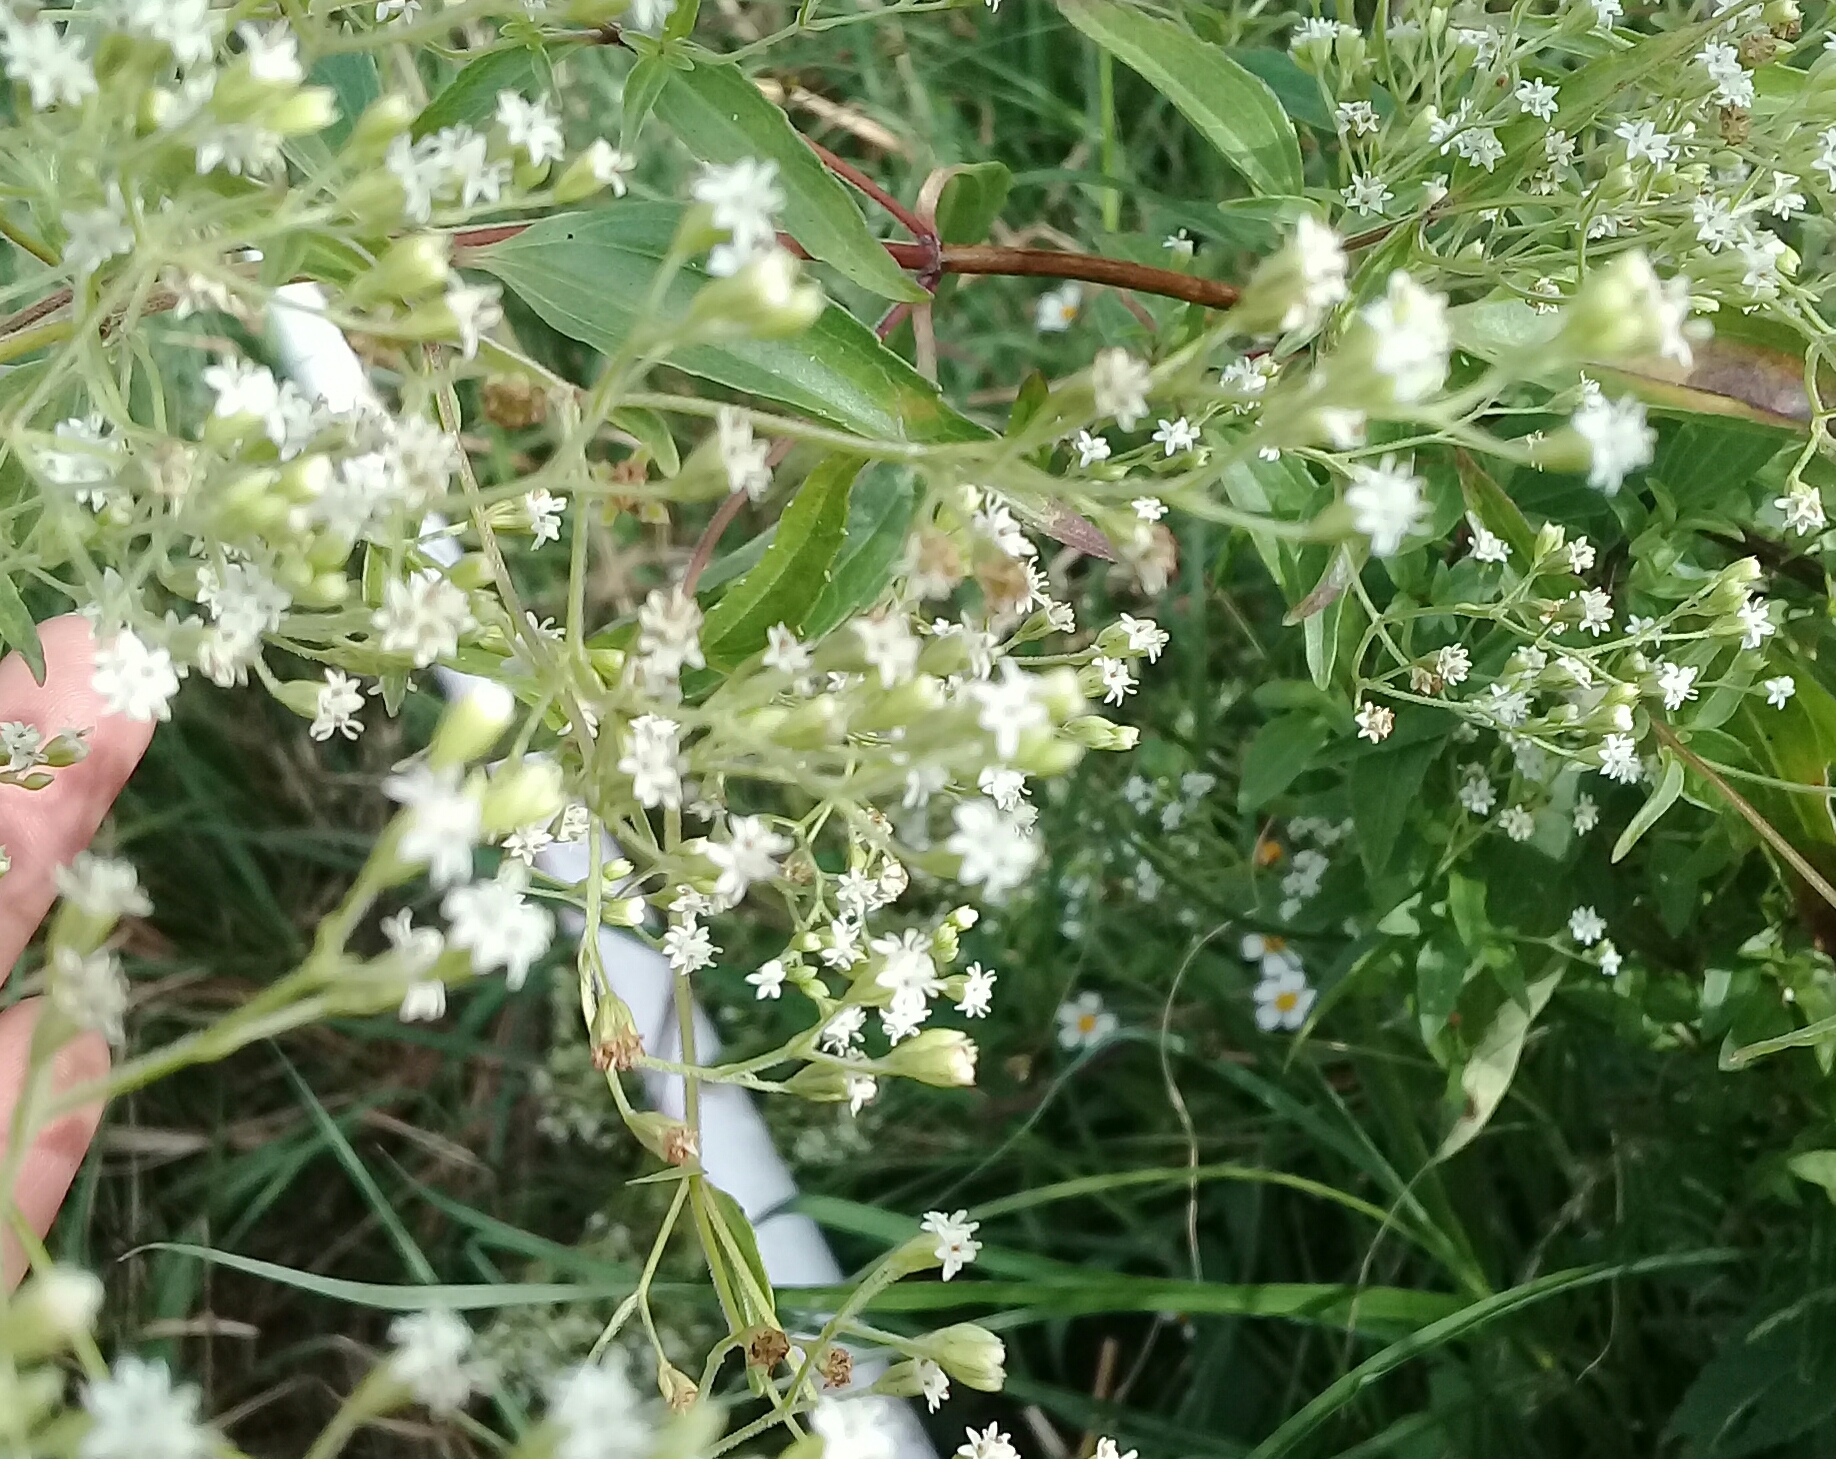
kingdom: Plantae
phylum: Tracheophyta
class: Magnoliopsida
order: Asterales
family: Asteraceae
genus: Piqueria
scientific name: Piqueria trinervia
